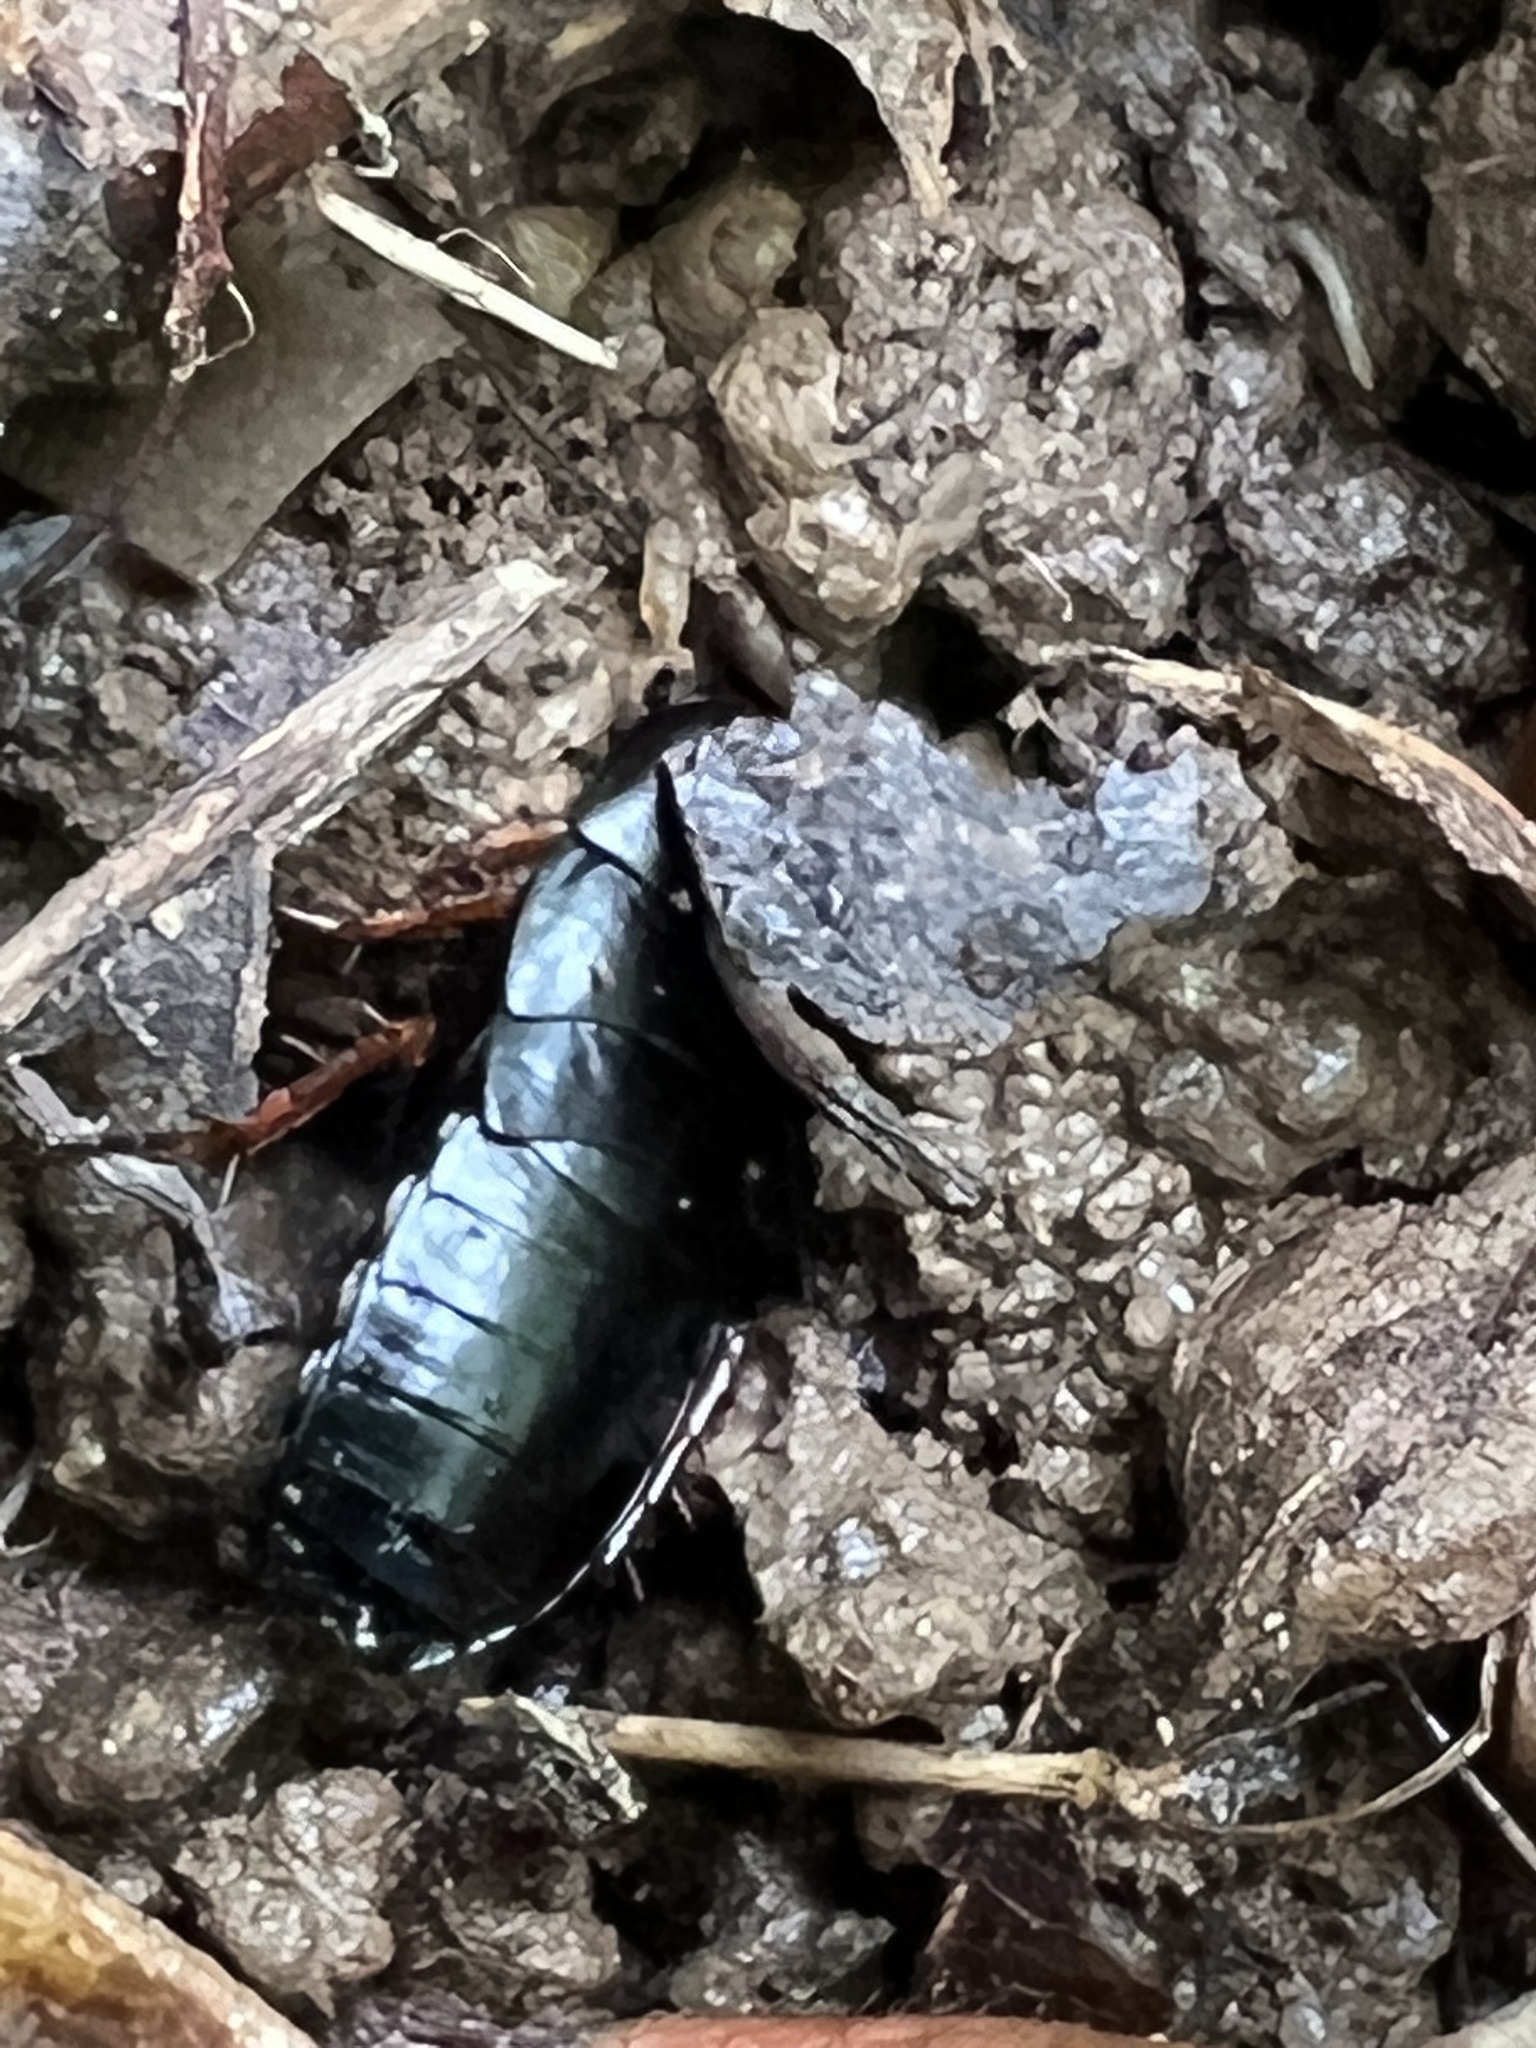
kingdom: Animalia
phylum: Arthropoda
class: Insecta
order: Blattodea
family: Ectobiidae
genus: Ischnoptera
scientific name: Ischnoptera deropeltiformis
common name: Dark wood cockroach
